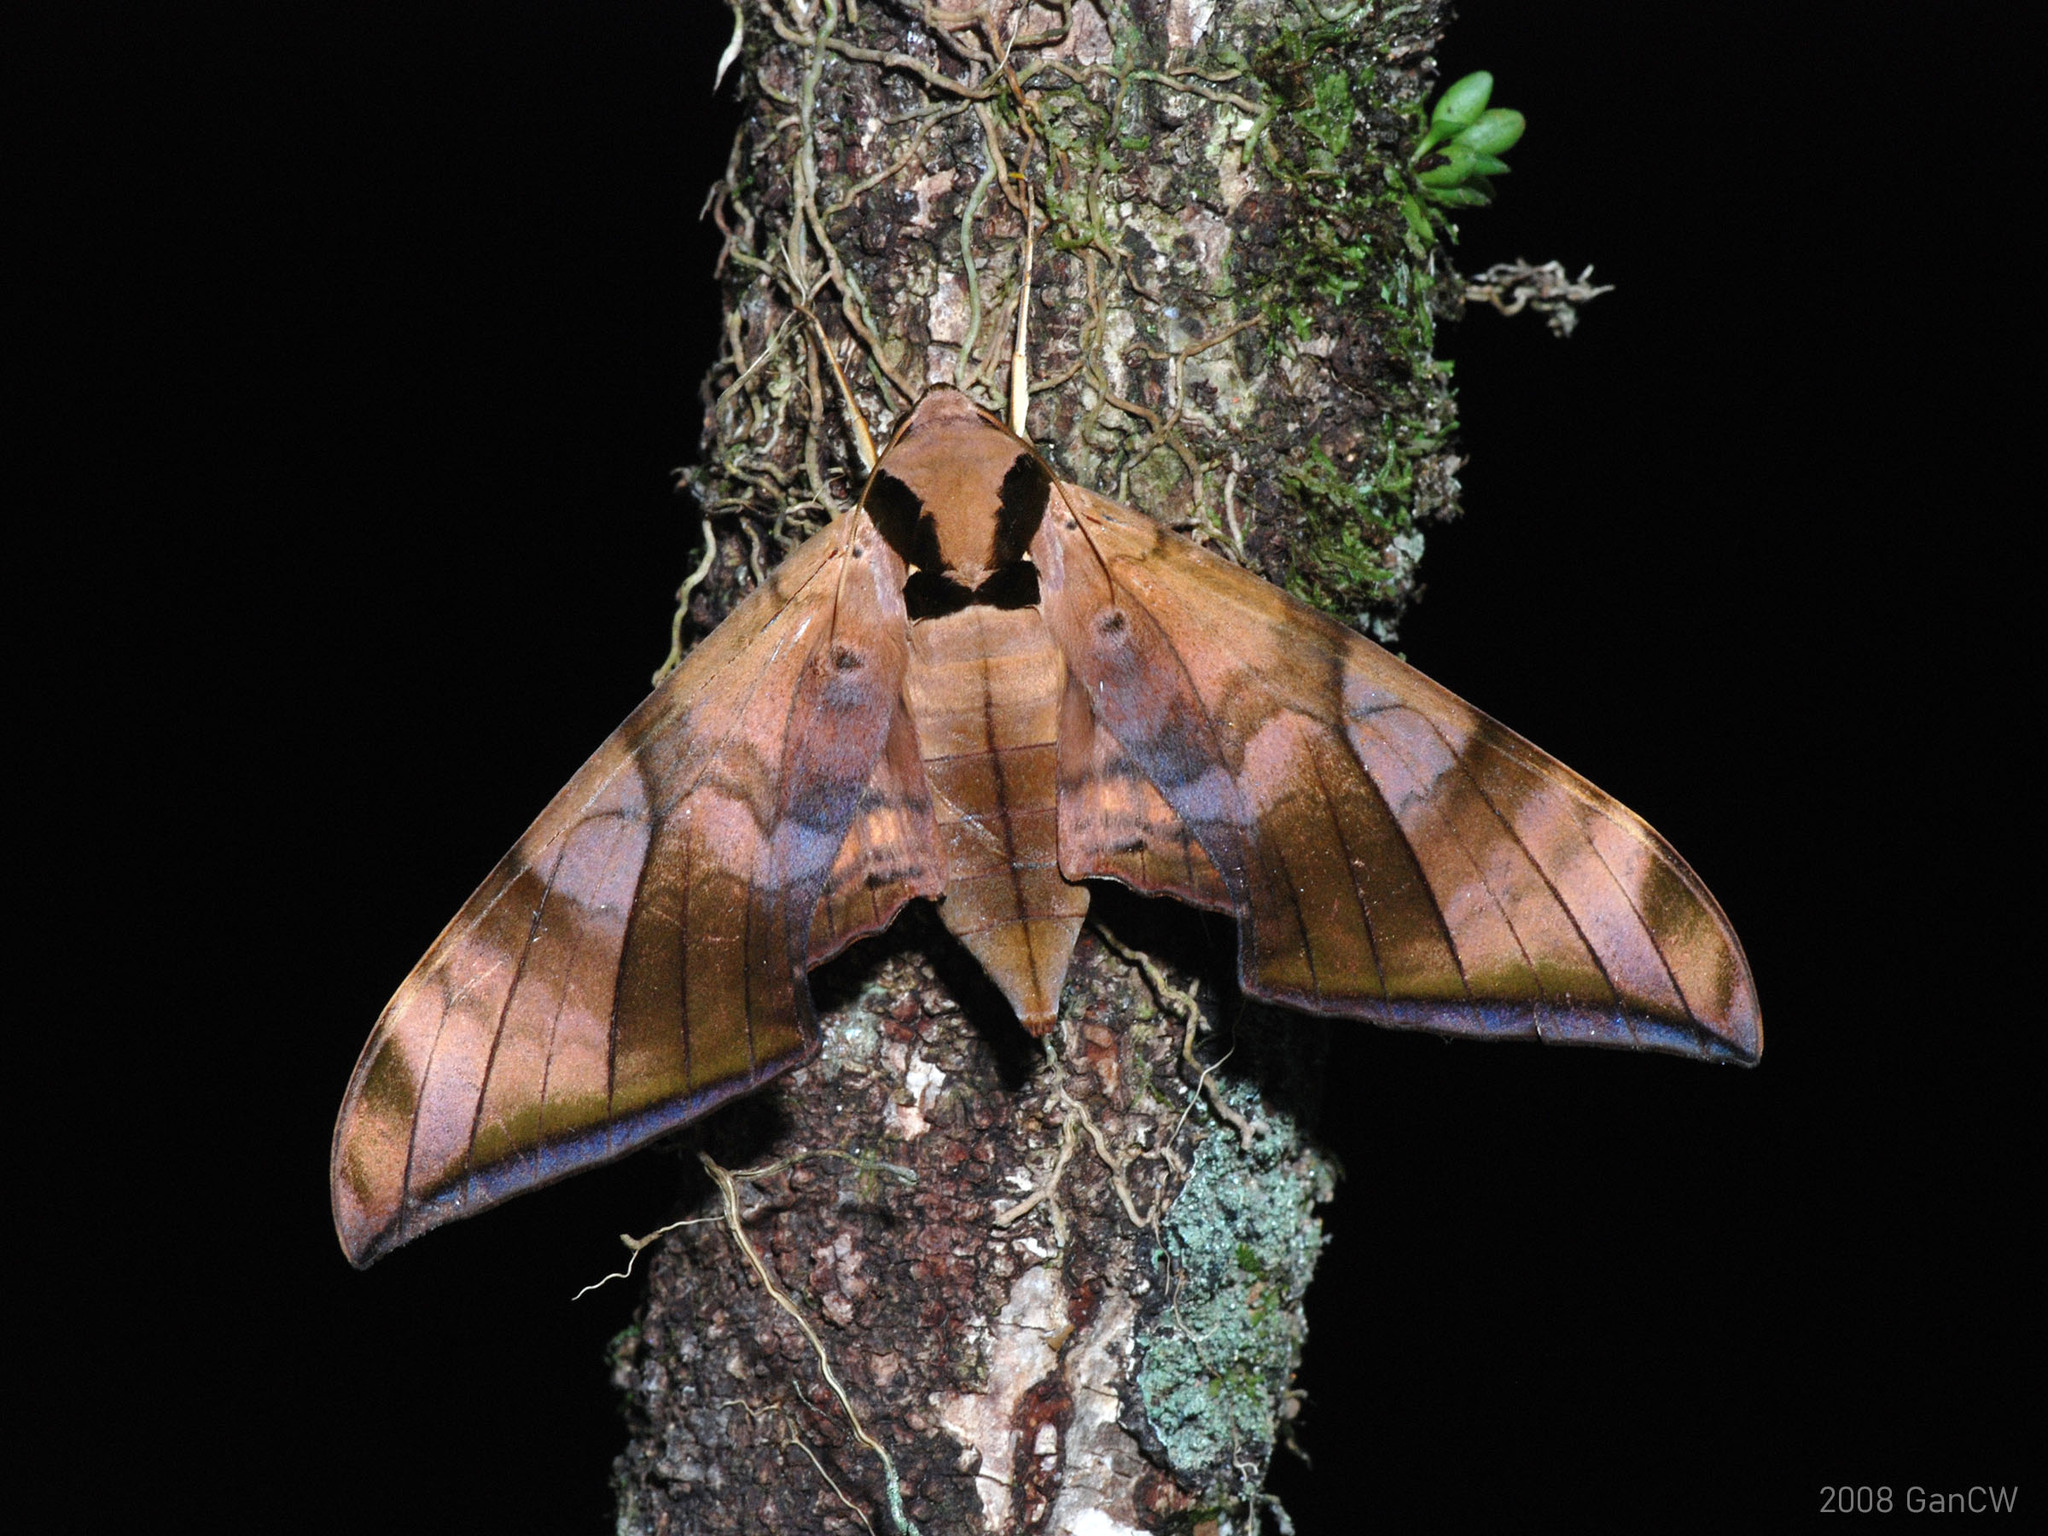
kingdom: Animalia
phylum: Arthropoda
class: Insecta
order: Lepidoptera
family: Sphingidae
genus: Ambulyx
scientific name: Ambulyx tattina
